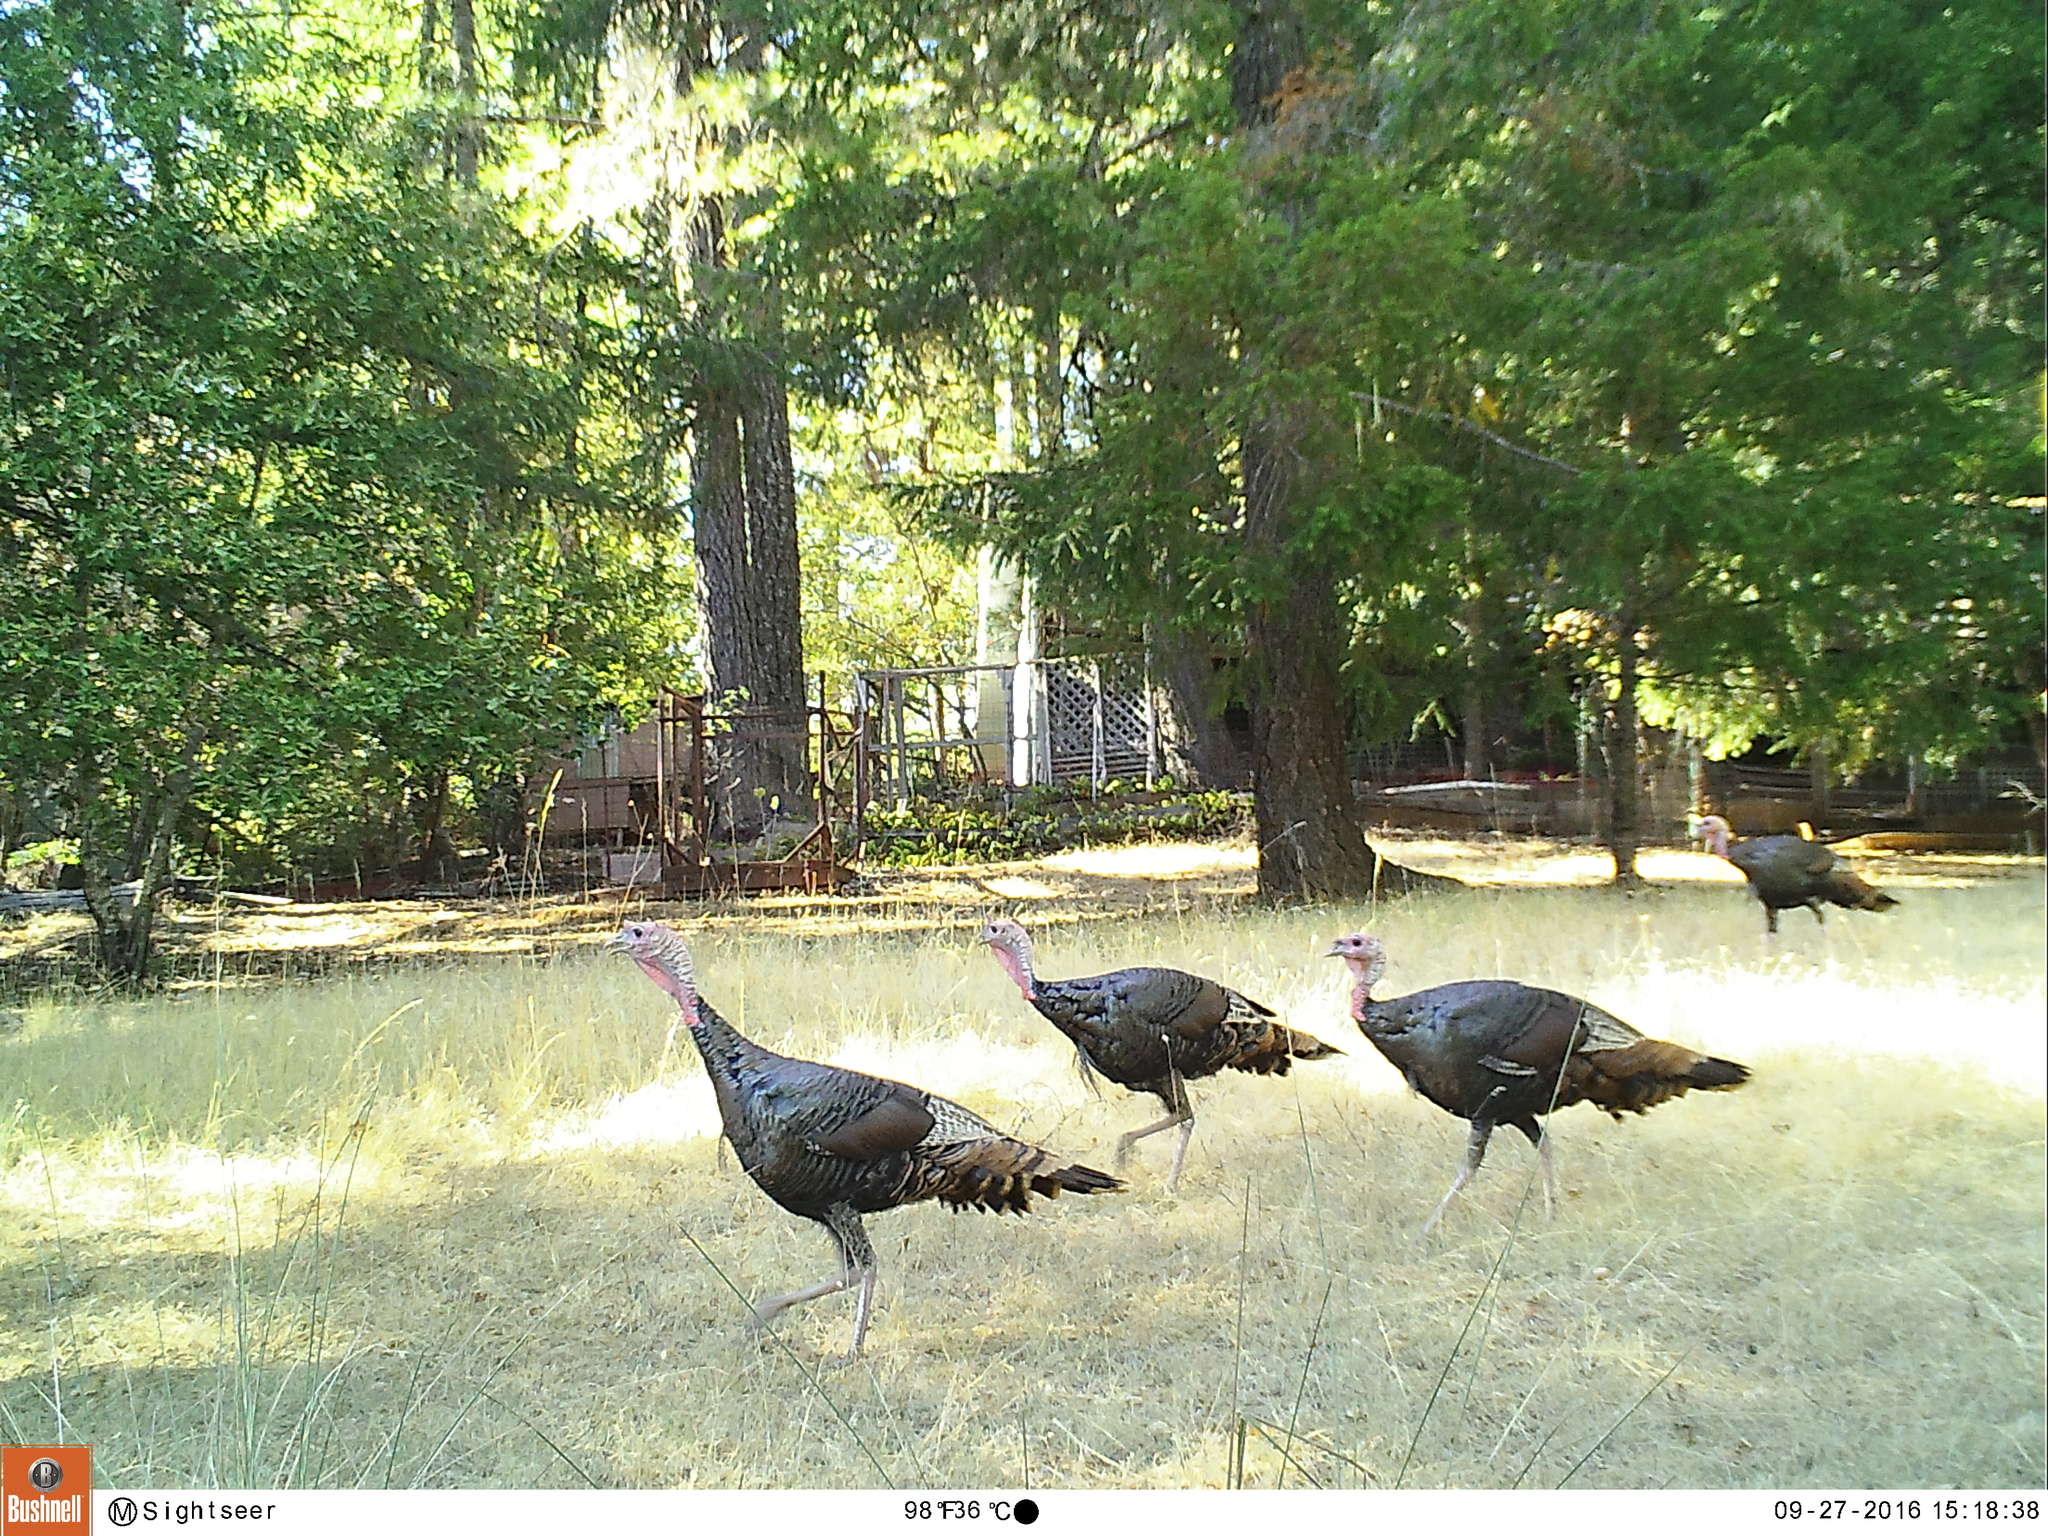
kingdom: Animalia
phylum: Chordata
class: Aves
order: Galliformes
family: Phasianidae
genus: Meleagris
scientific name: Meleagris gallopavo
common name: Wild turkey
